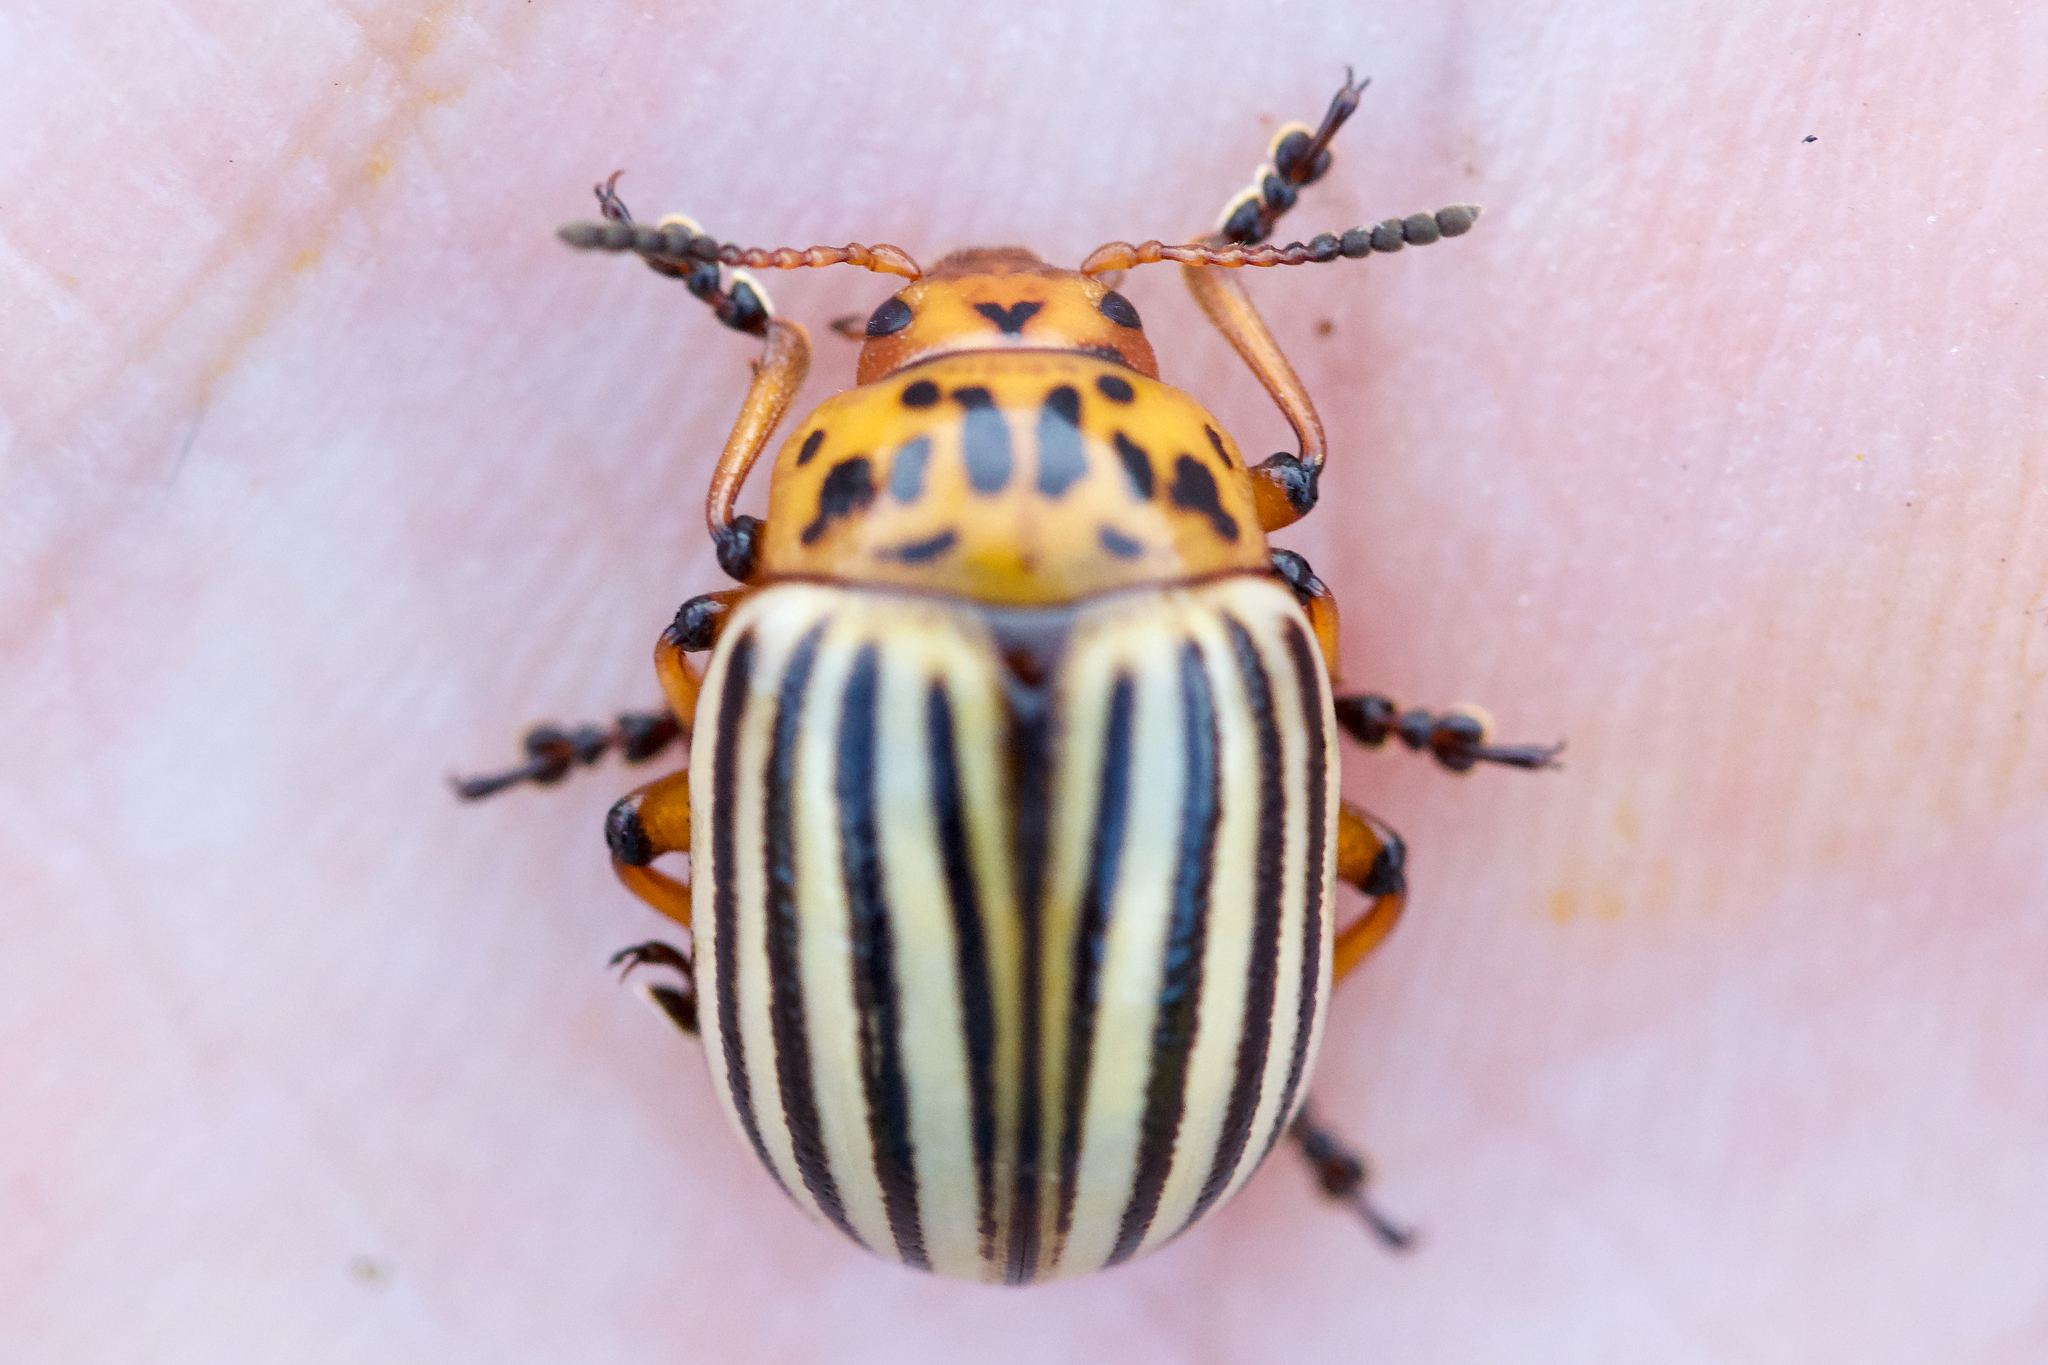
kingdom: Animalia
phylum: Arthropoda
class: Insecta
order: Coleoptera
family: Chrysomelidae
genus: Leptinotarsa
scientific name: Leptinotarsa decemlineata
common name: Colorado potato beetle
